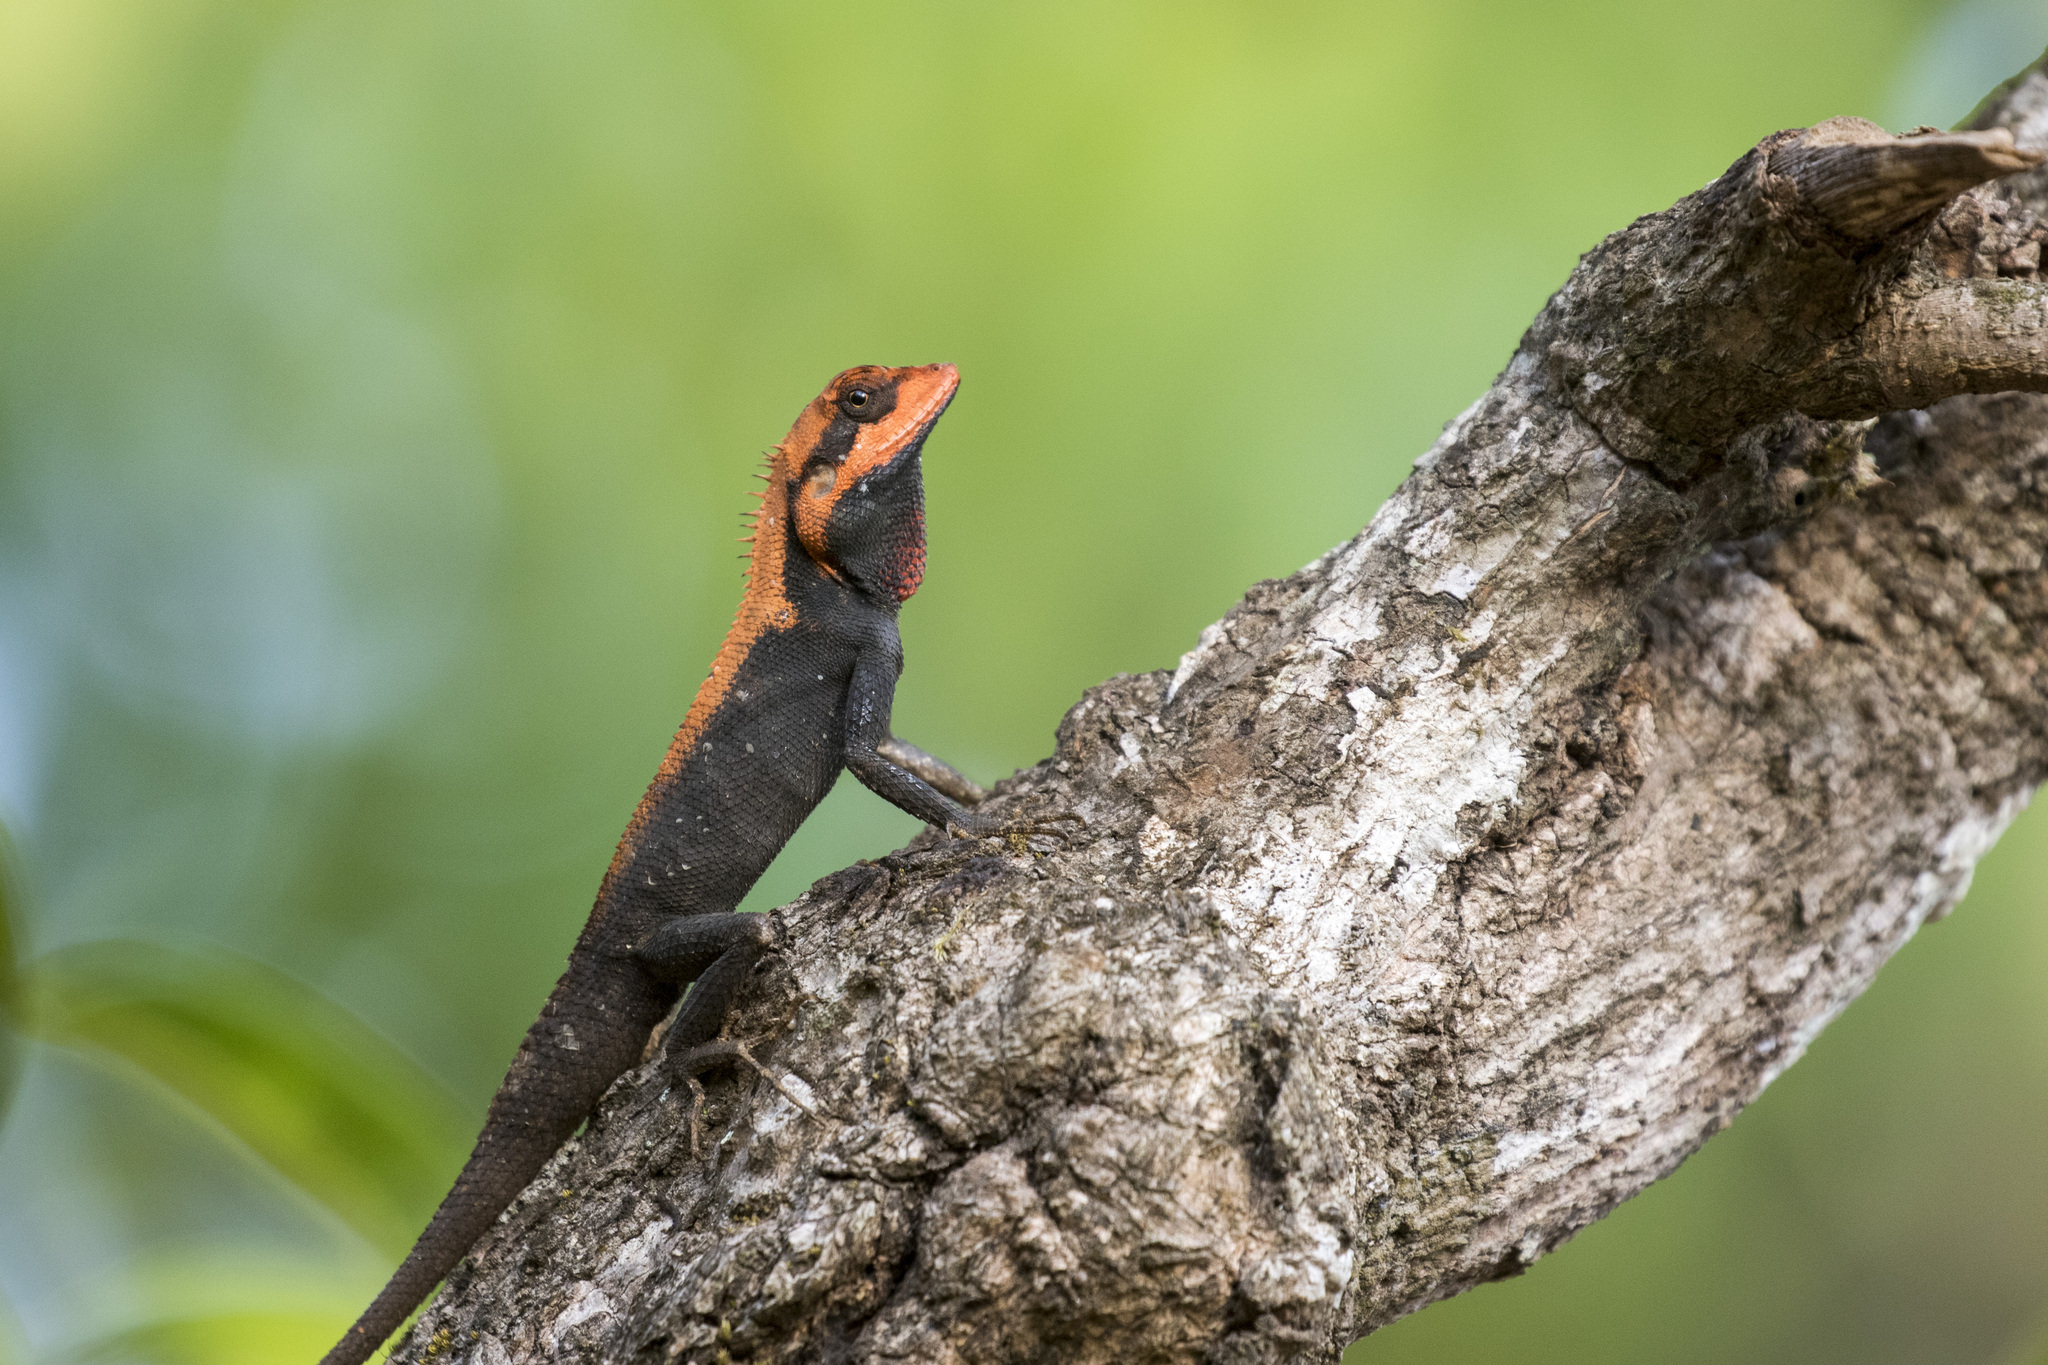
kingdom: Animalia
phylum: Chordata
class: Squamata
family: Agamidae
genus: Monilesaurus
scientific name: Monilesaurus rouxii
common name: Roux's forest lizard
